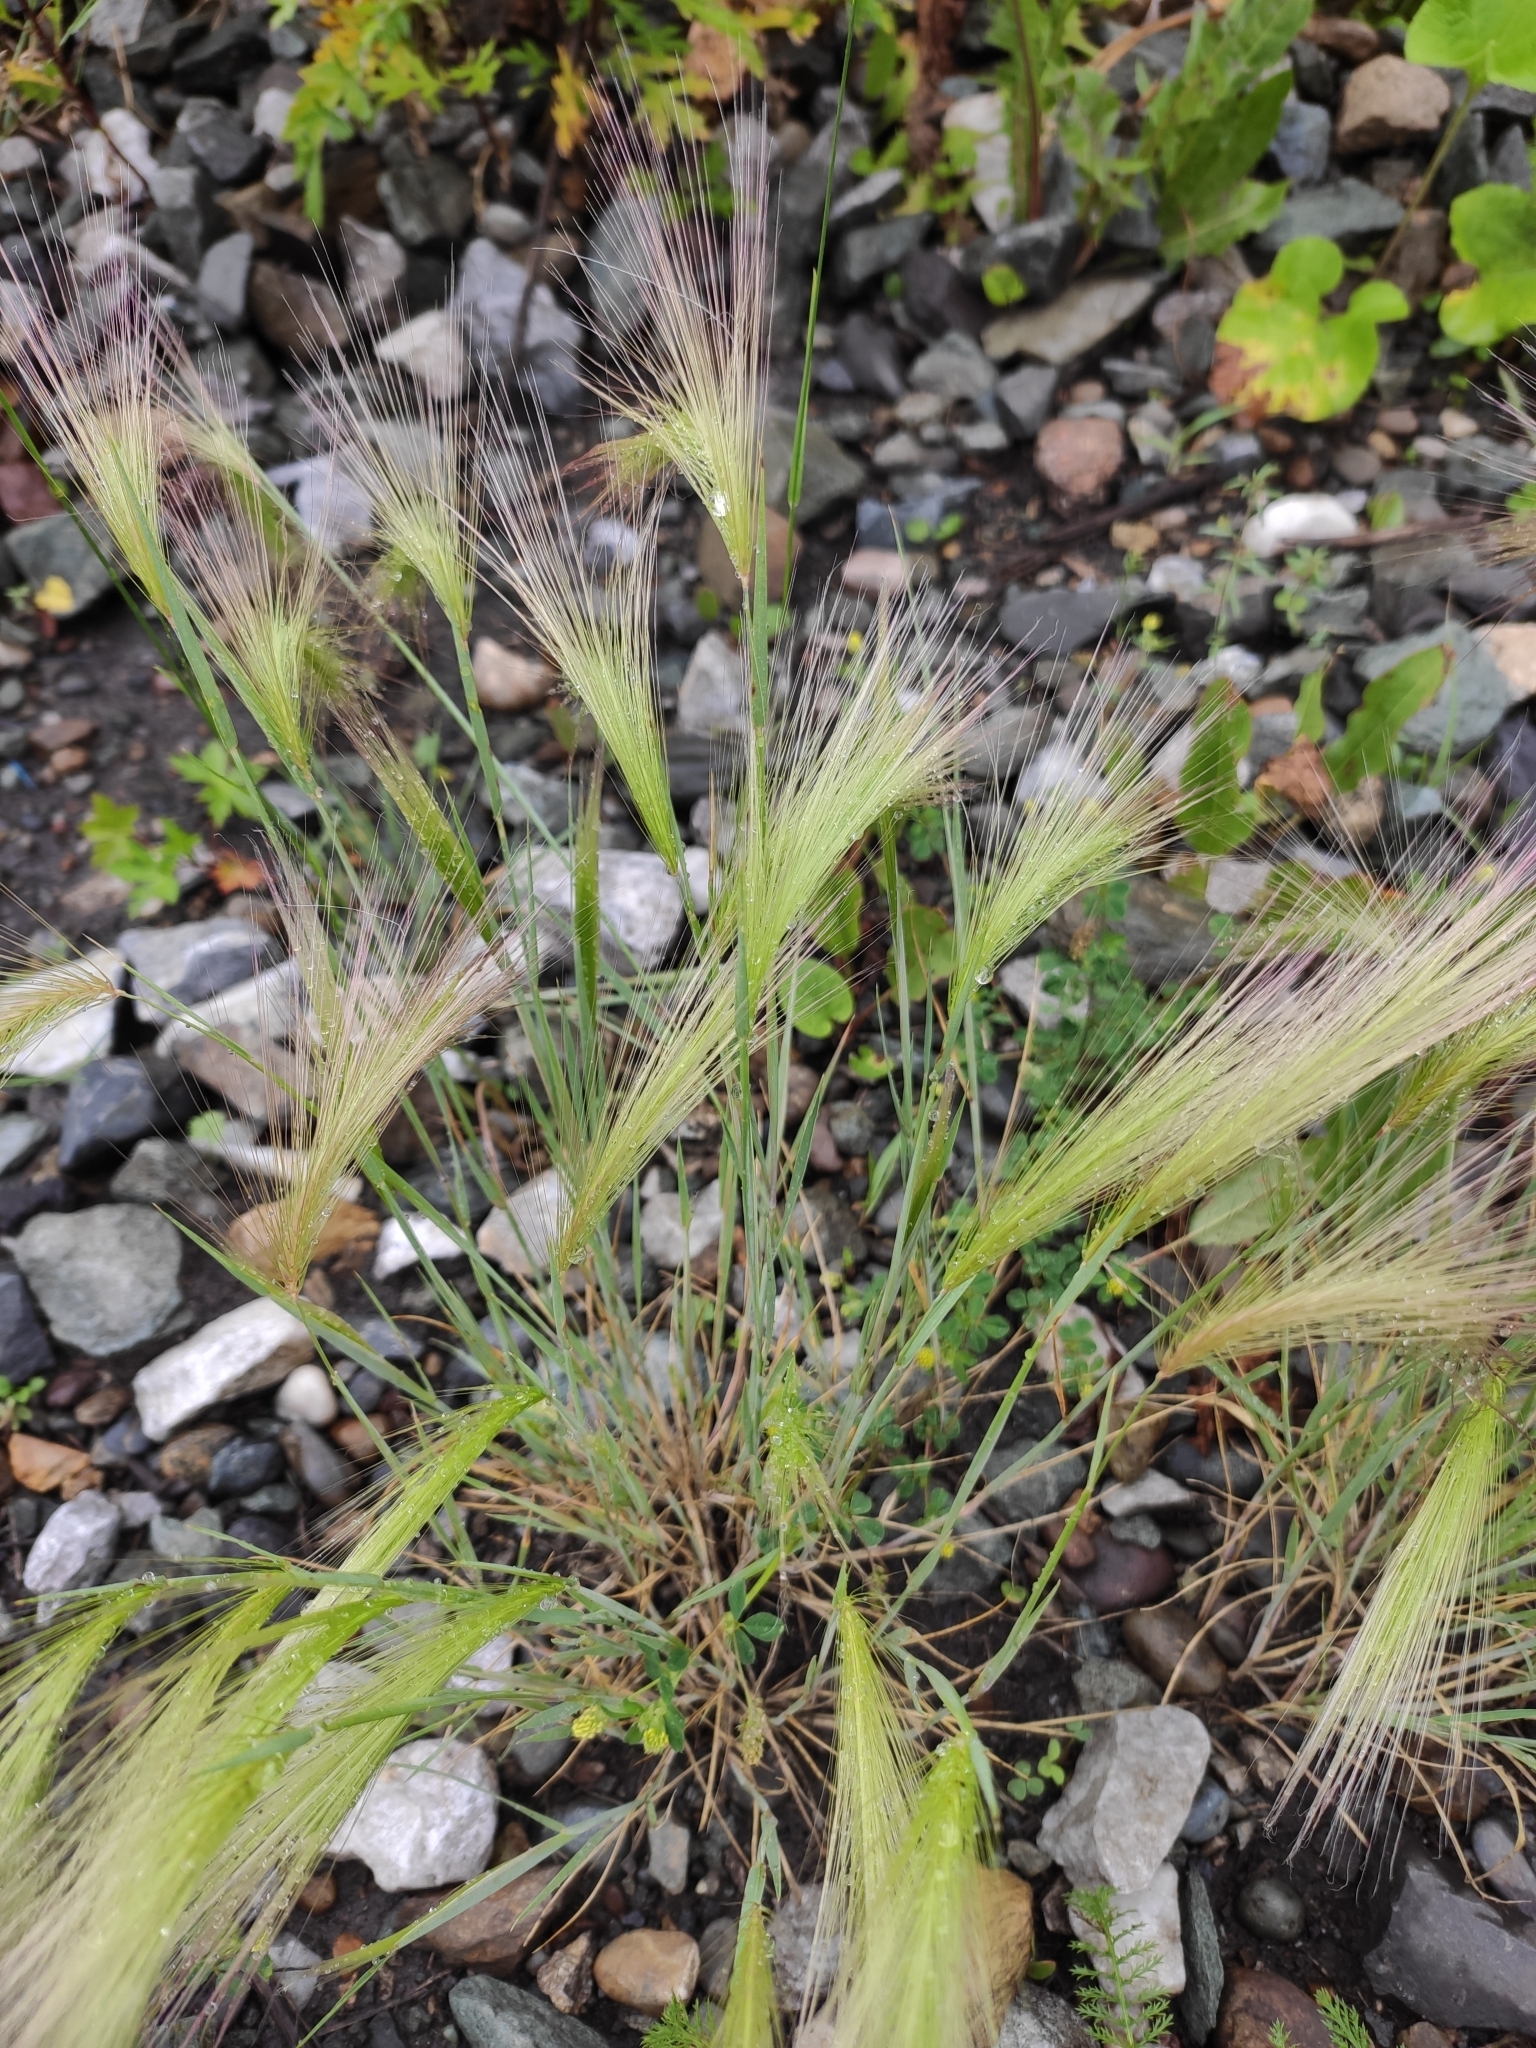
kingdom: Plantae
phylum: Tracheophyta
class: Liliopsida
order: Poales
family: Poaceae
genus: Hordeum
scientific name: Hordeum jubatum
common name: Foxtail barley
